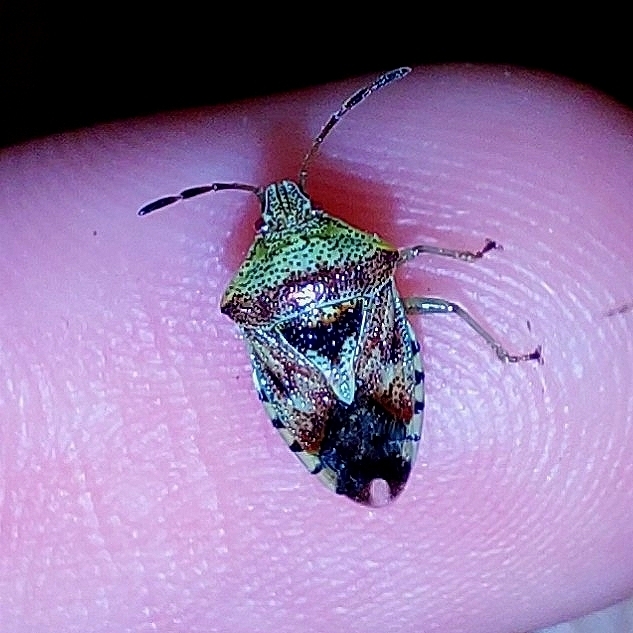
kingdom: Animalia
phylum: Arthropoda
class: Insecta
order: Hemiptera
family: Acanthosomatidae
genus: Elasmucha
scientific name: Elasmucha grisea
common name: Parent bug
